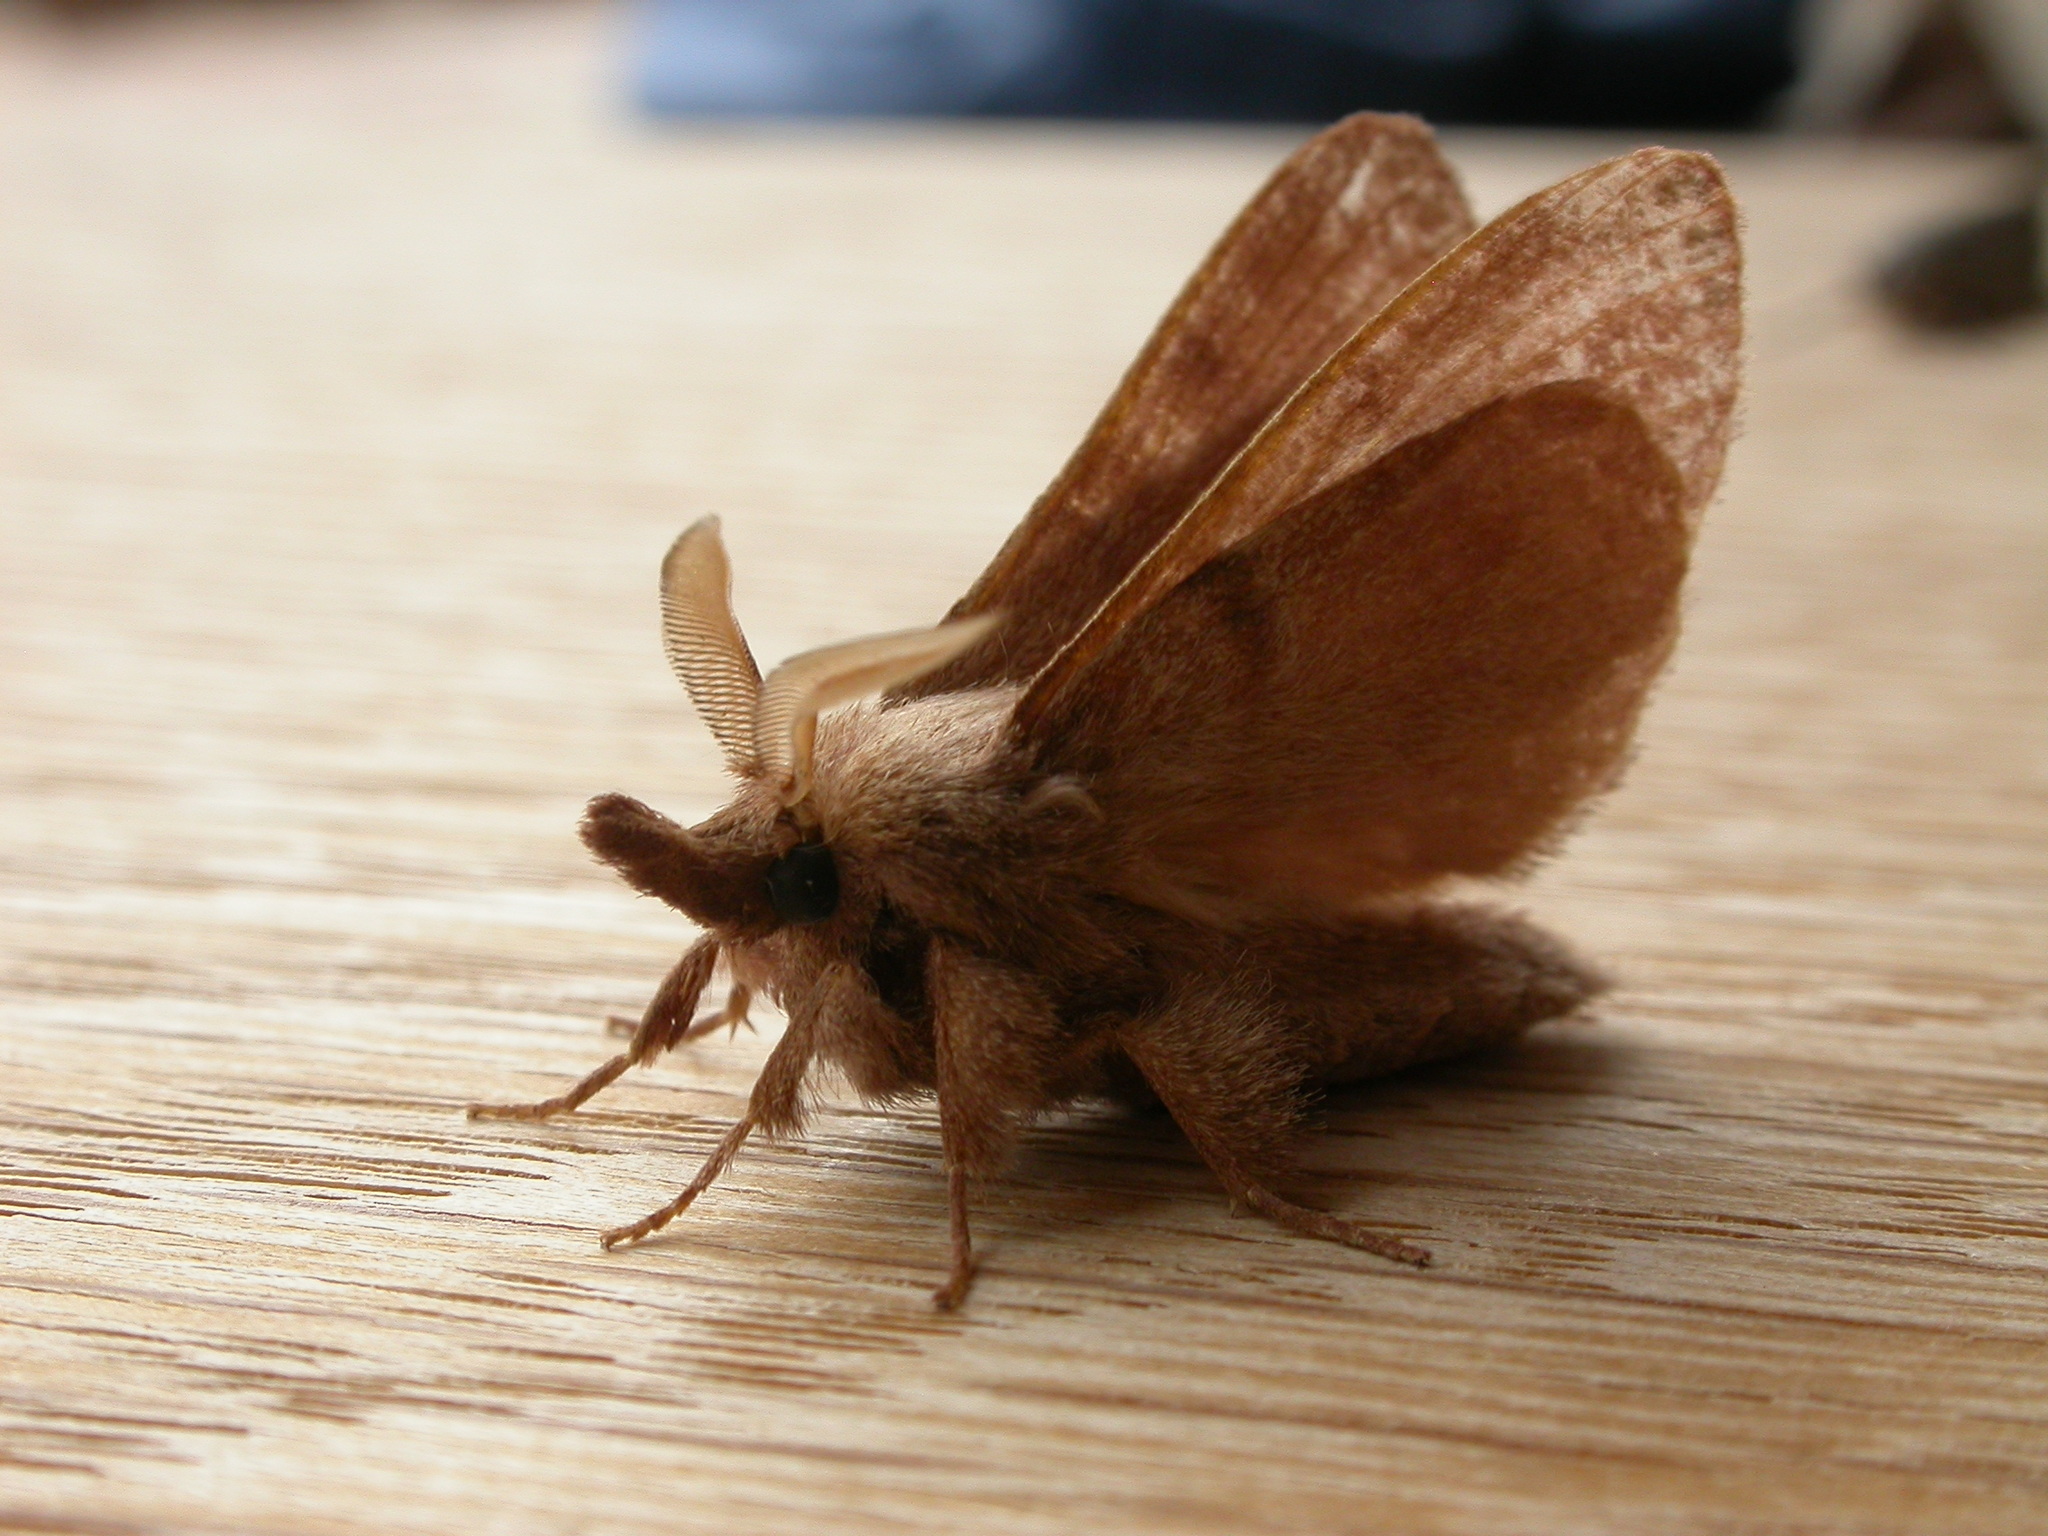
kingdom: Animalia
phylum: Arthropoda
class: Insecta
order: Lepidoptera
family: Lasiocampidae
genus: Pararguda
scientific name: Pararguda nasuta
